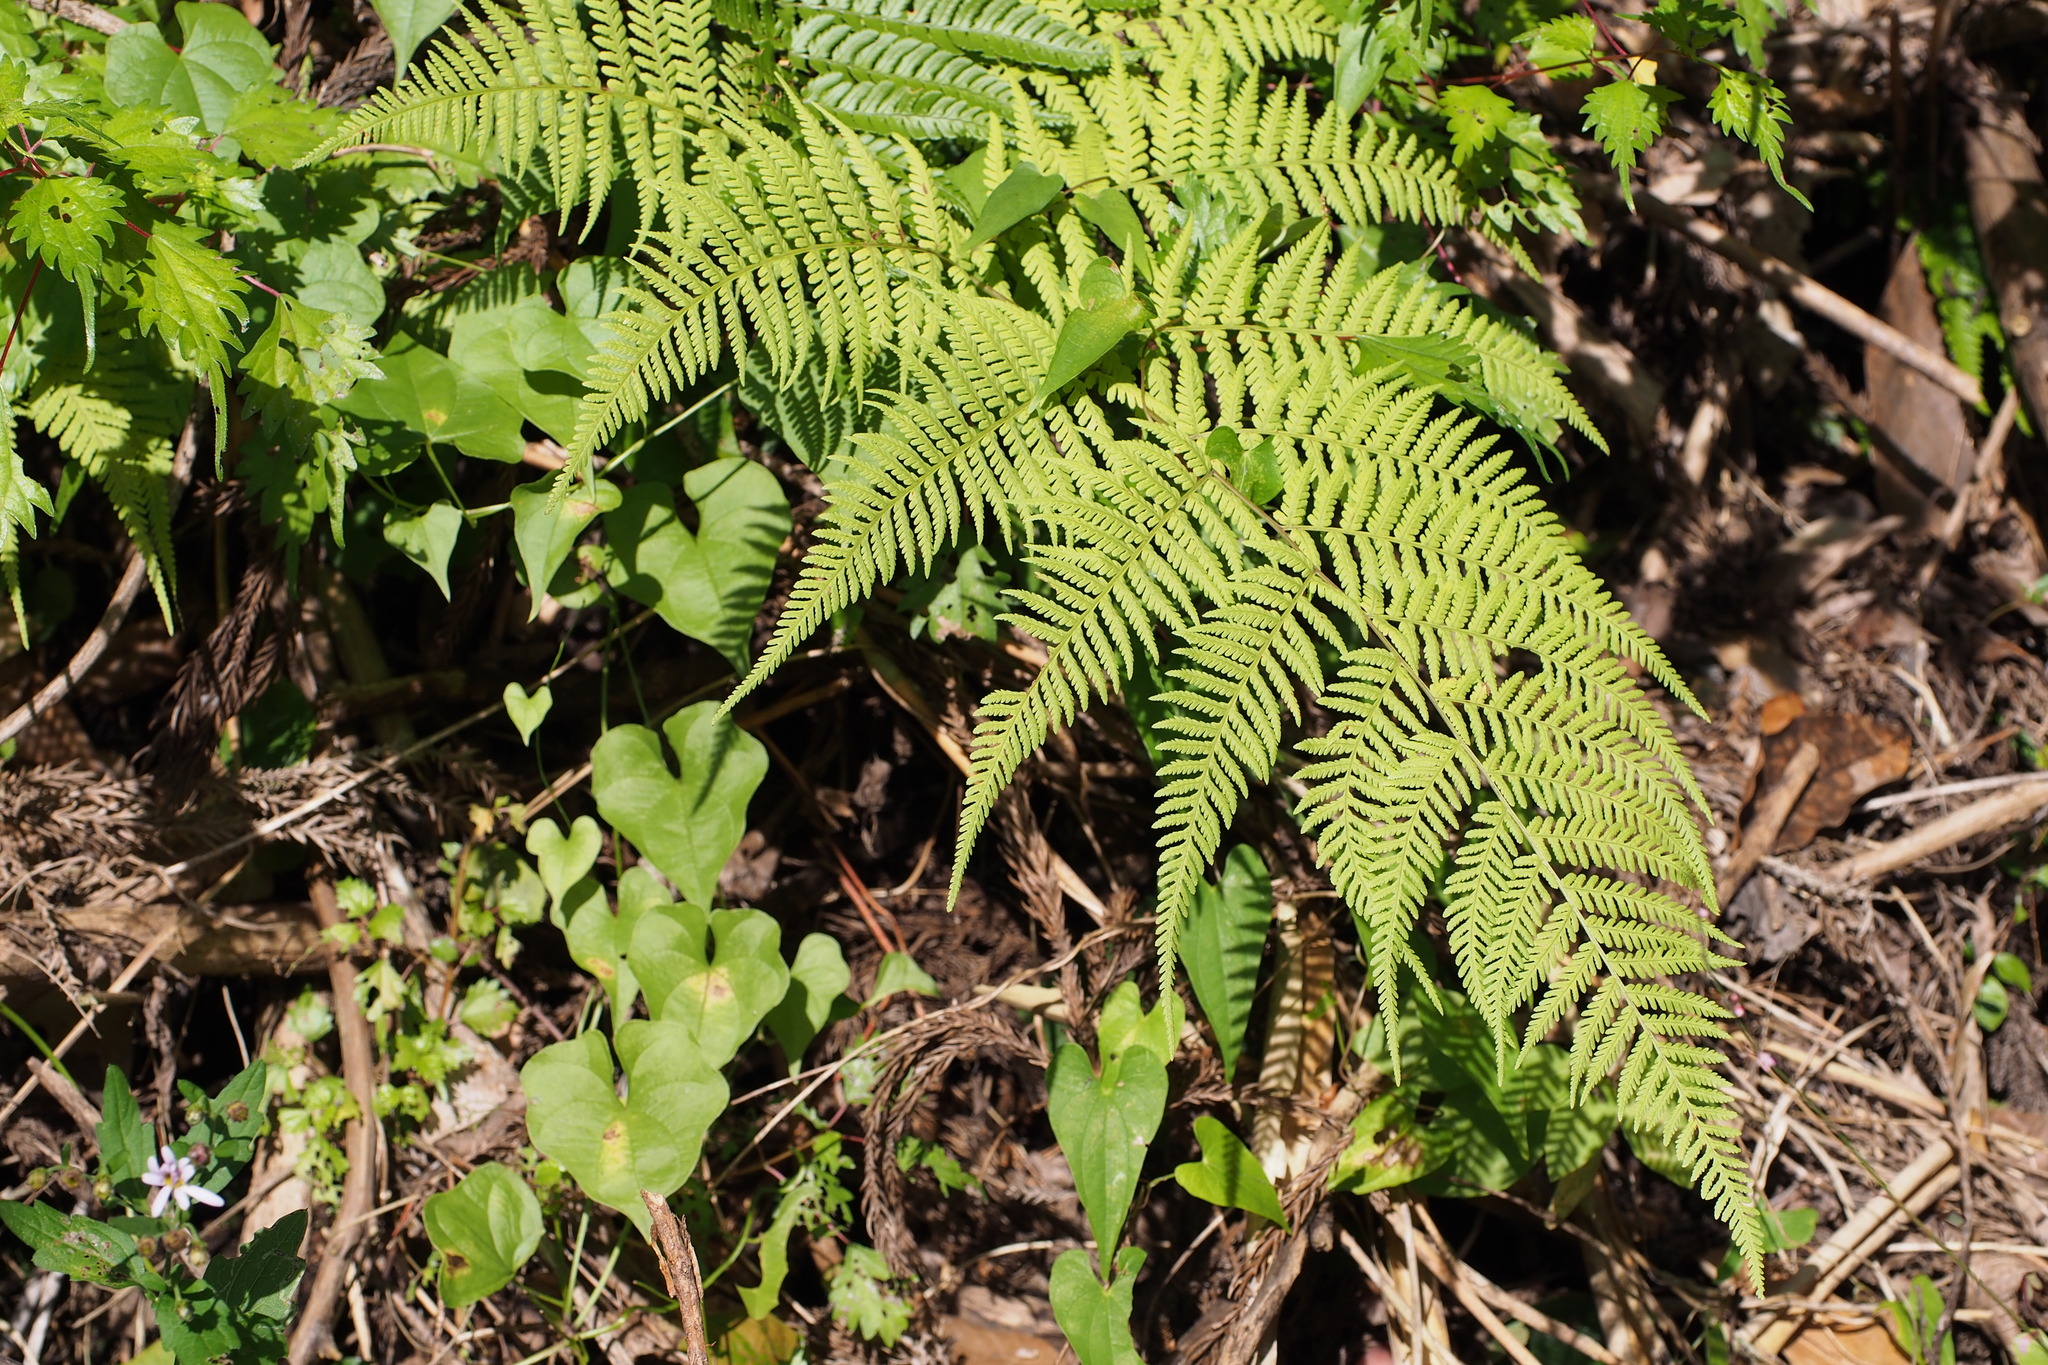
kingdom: Plantae
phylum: Tracheophyta
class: Polypodiopsida
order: Polypodiales
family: Thelypteridaceae
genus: Macrothelypteris
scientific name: Macrothelypteris torresiana
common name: Swordfern
